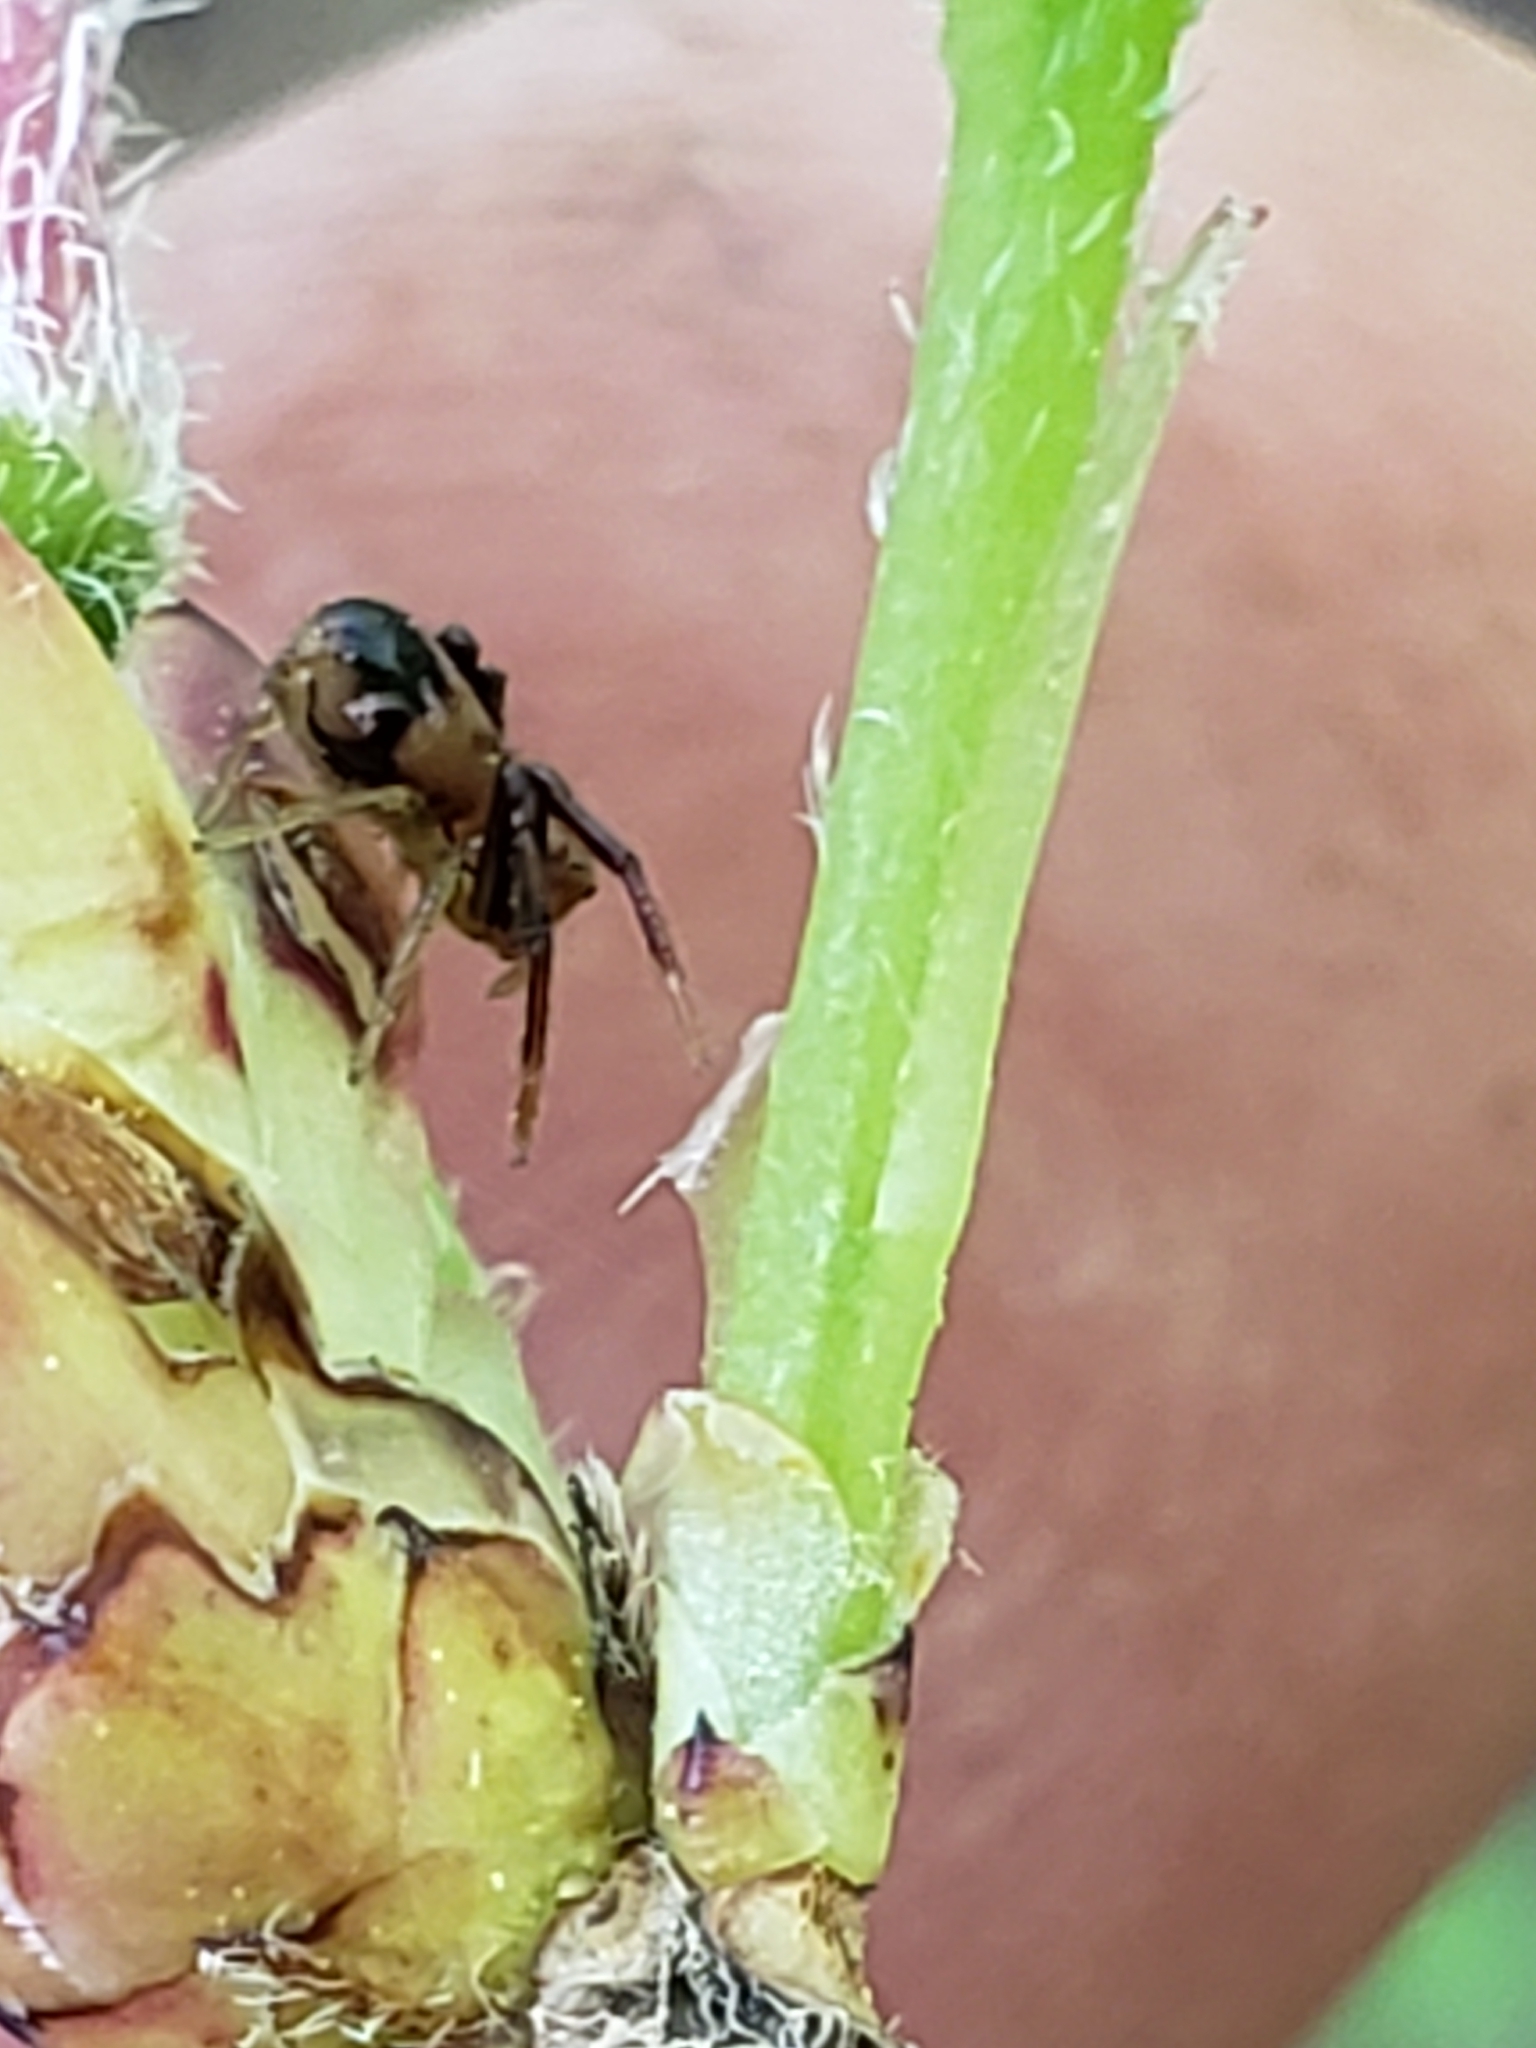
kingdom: Animalia
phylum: Arthropoda
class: Arachnida
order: Araneae
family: Thomisidae
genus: Synema
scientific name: Synema parvulum
